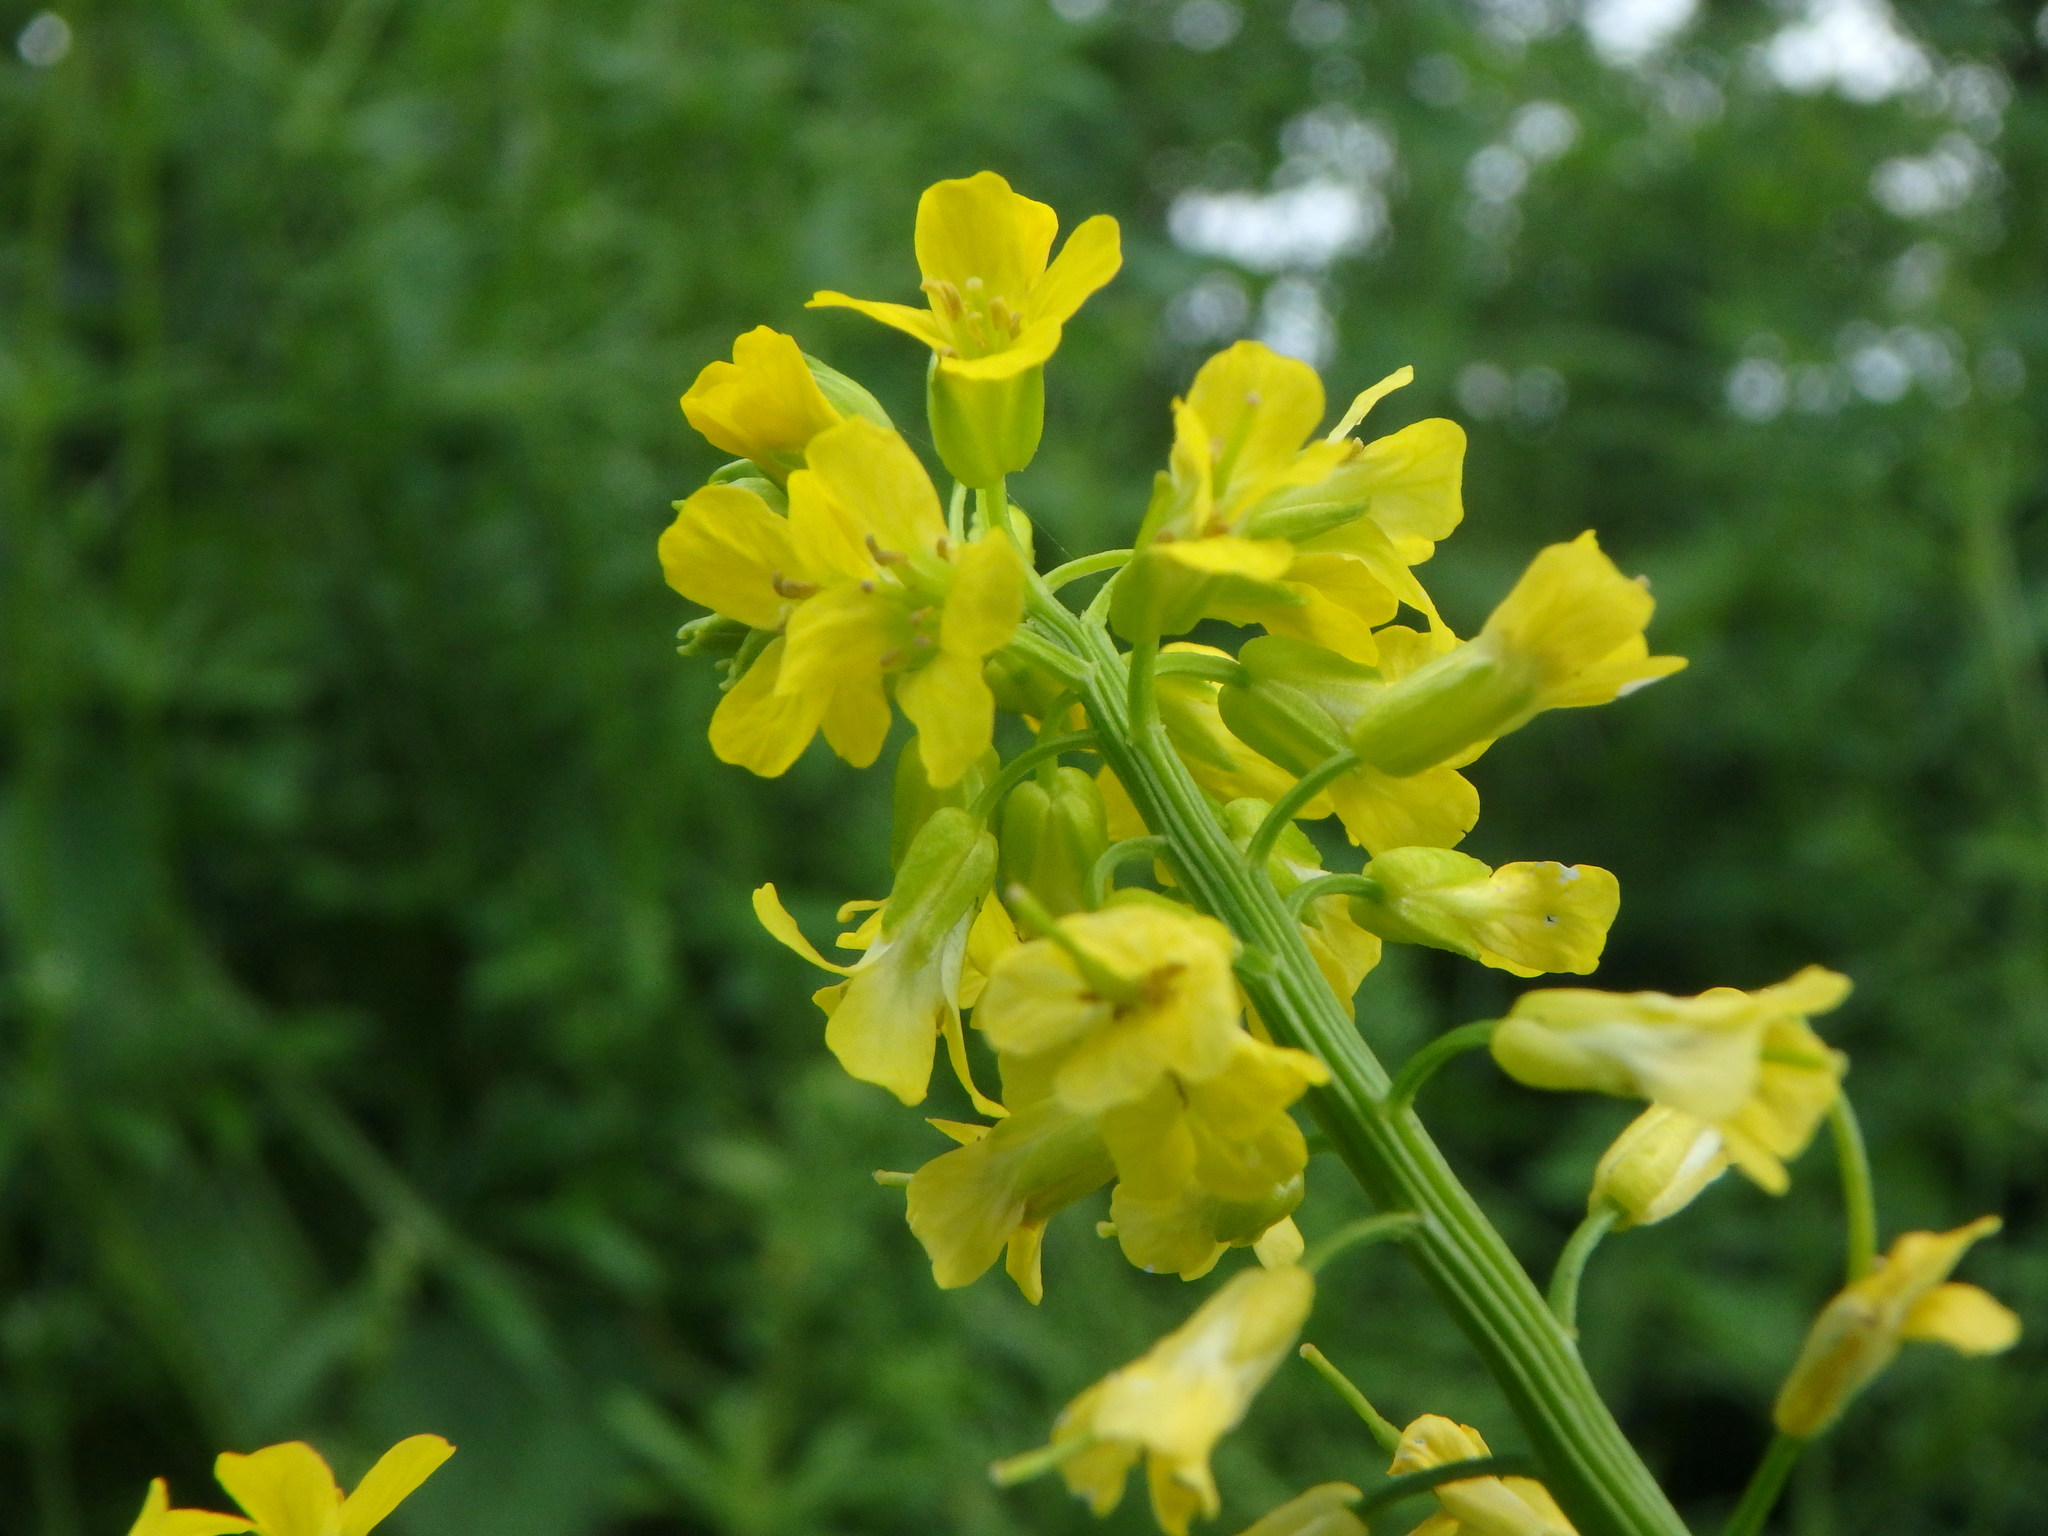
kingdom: Plantae
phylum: Tracheophyta
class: Magnoliopsida
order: Brassicales
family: Brassicaceae
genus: Barbarea
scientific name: Barbarea vulgaris
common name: Cressy-greens
